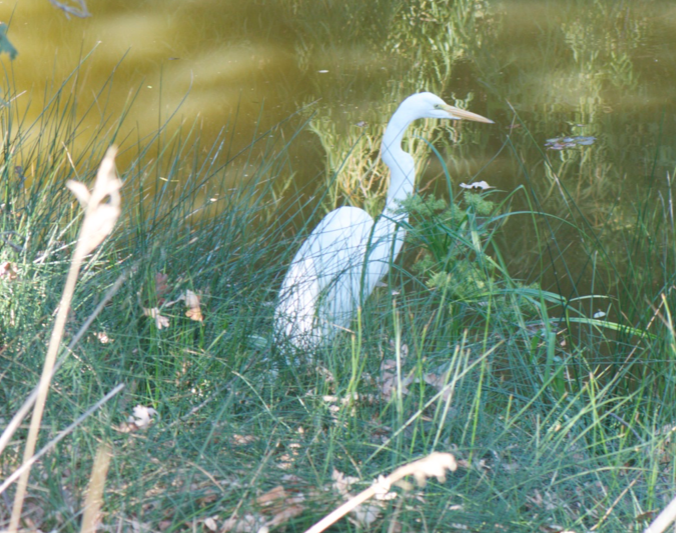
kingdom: Animalia
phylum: Chordata
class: Aves
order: Pelecaniformes
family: Ardeidae
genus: Ardea
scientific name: Ardea alba
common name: Great egret
